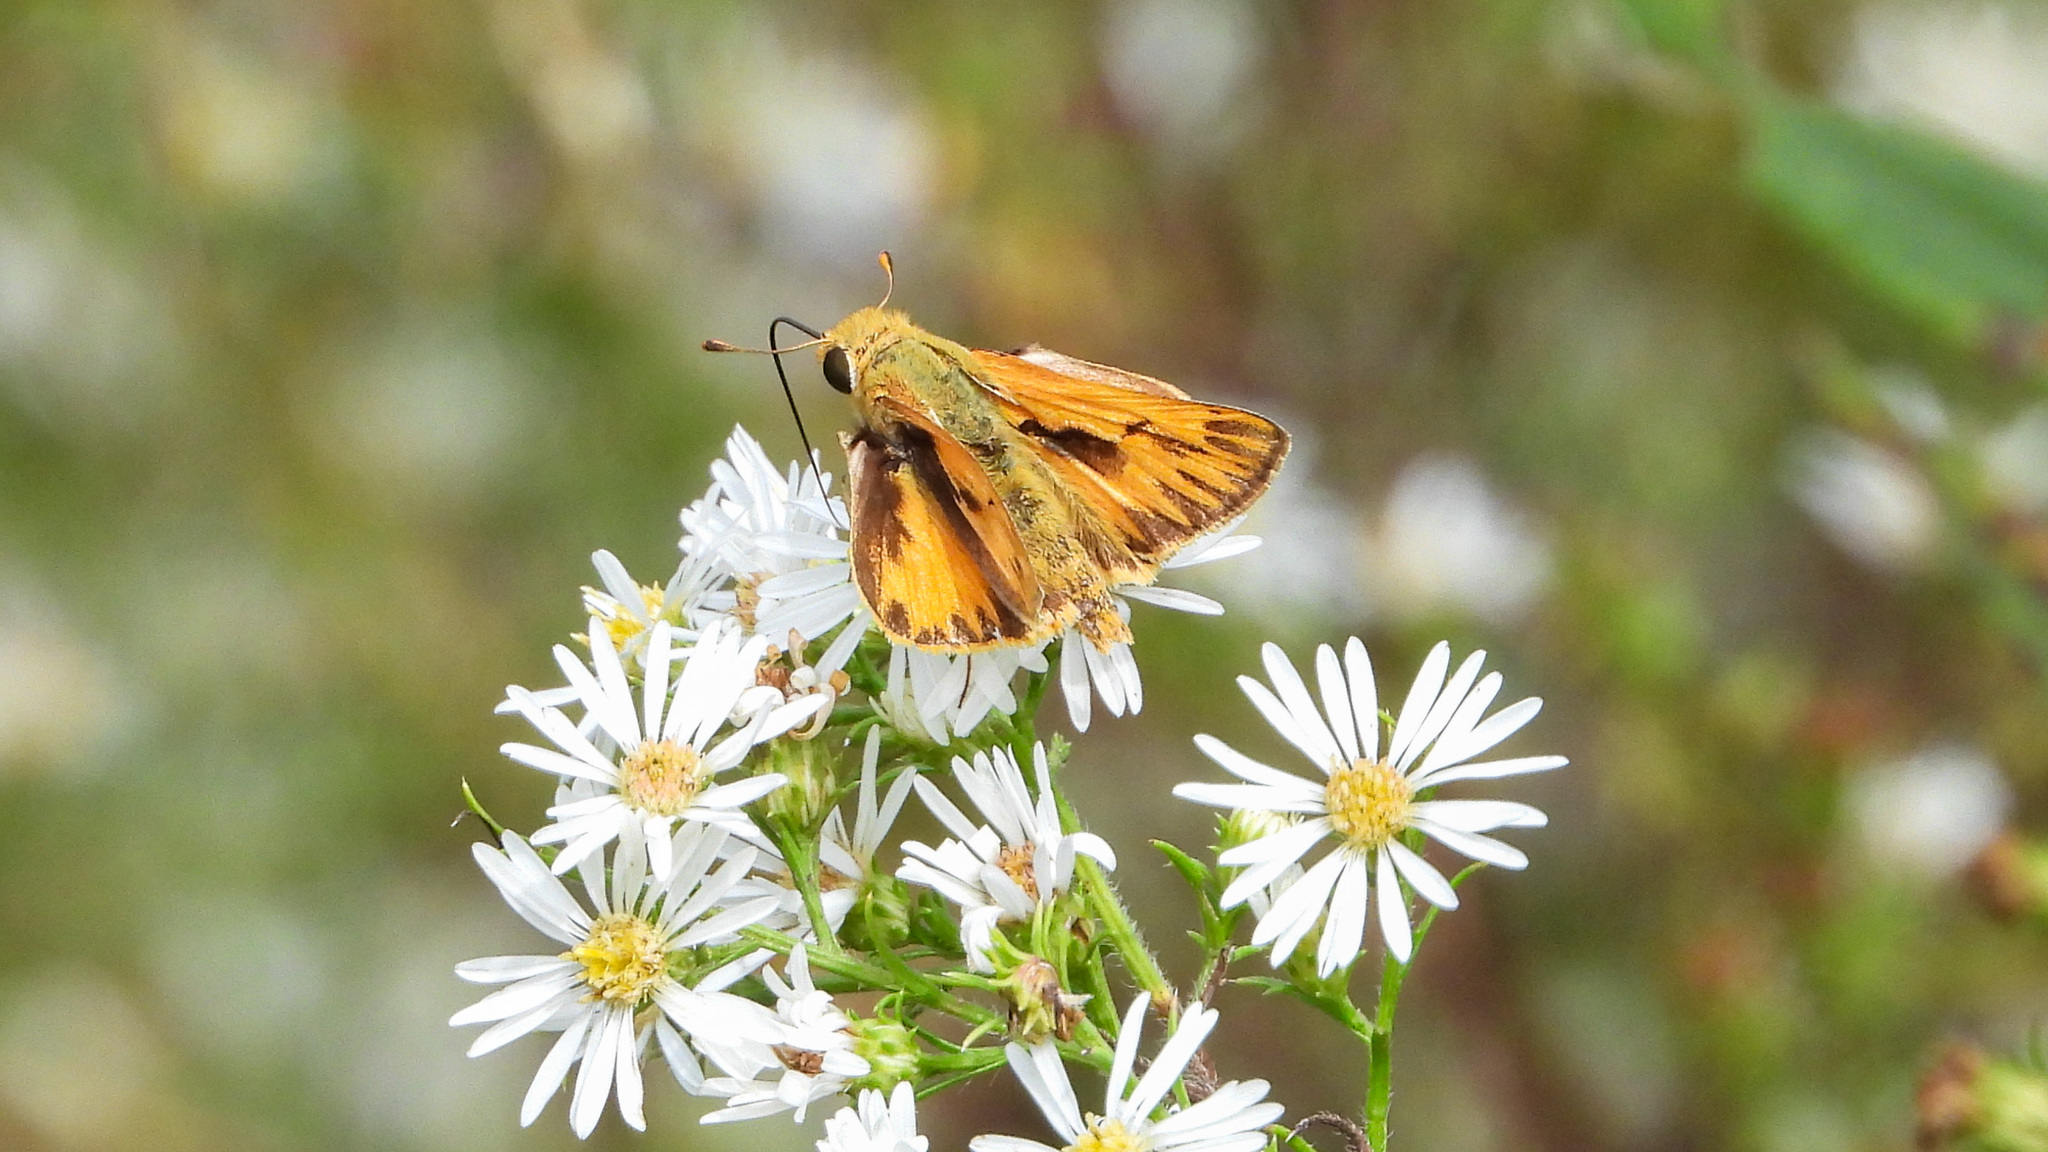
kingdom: Animalia
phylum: Arthropoda
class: Insecta
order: Lepidoptera
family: Hesperiidae
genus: Hylephila
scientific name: Hylephila phyleus
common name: Fiery skipper
